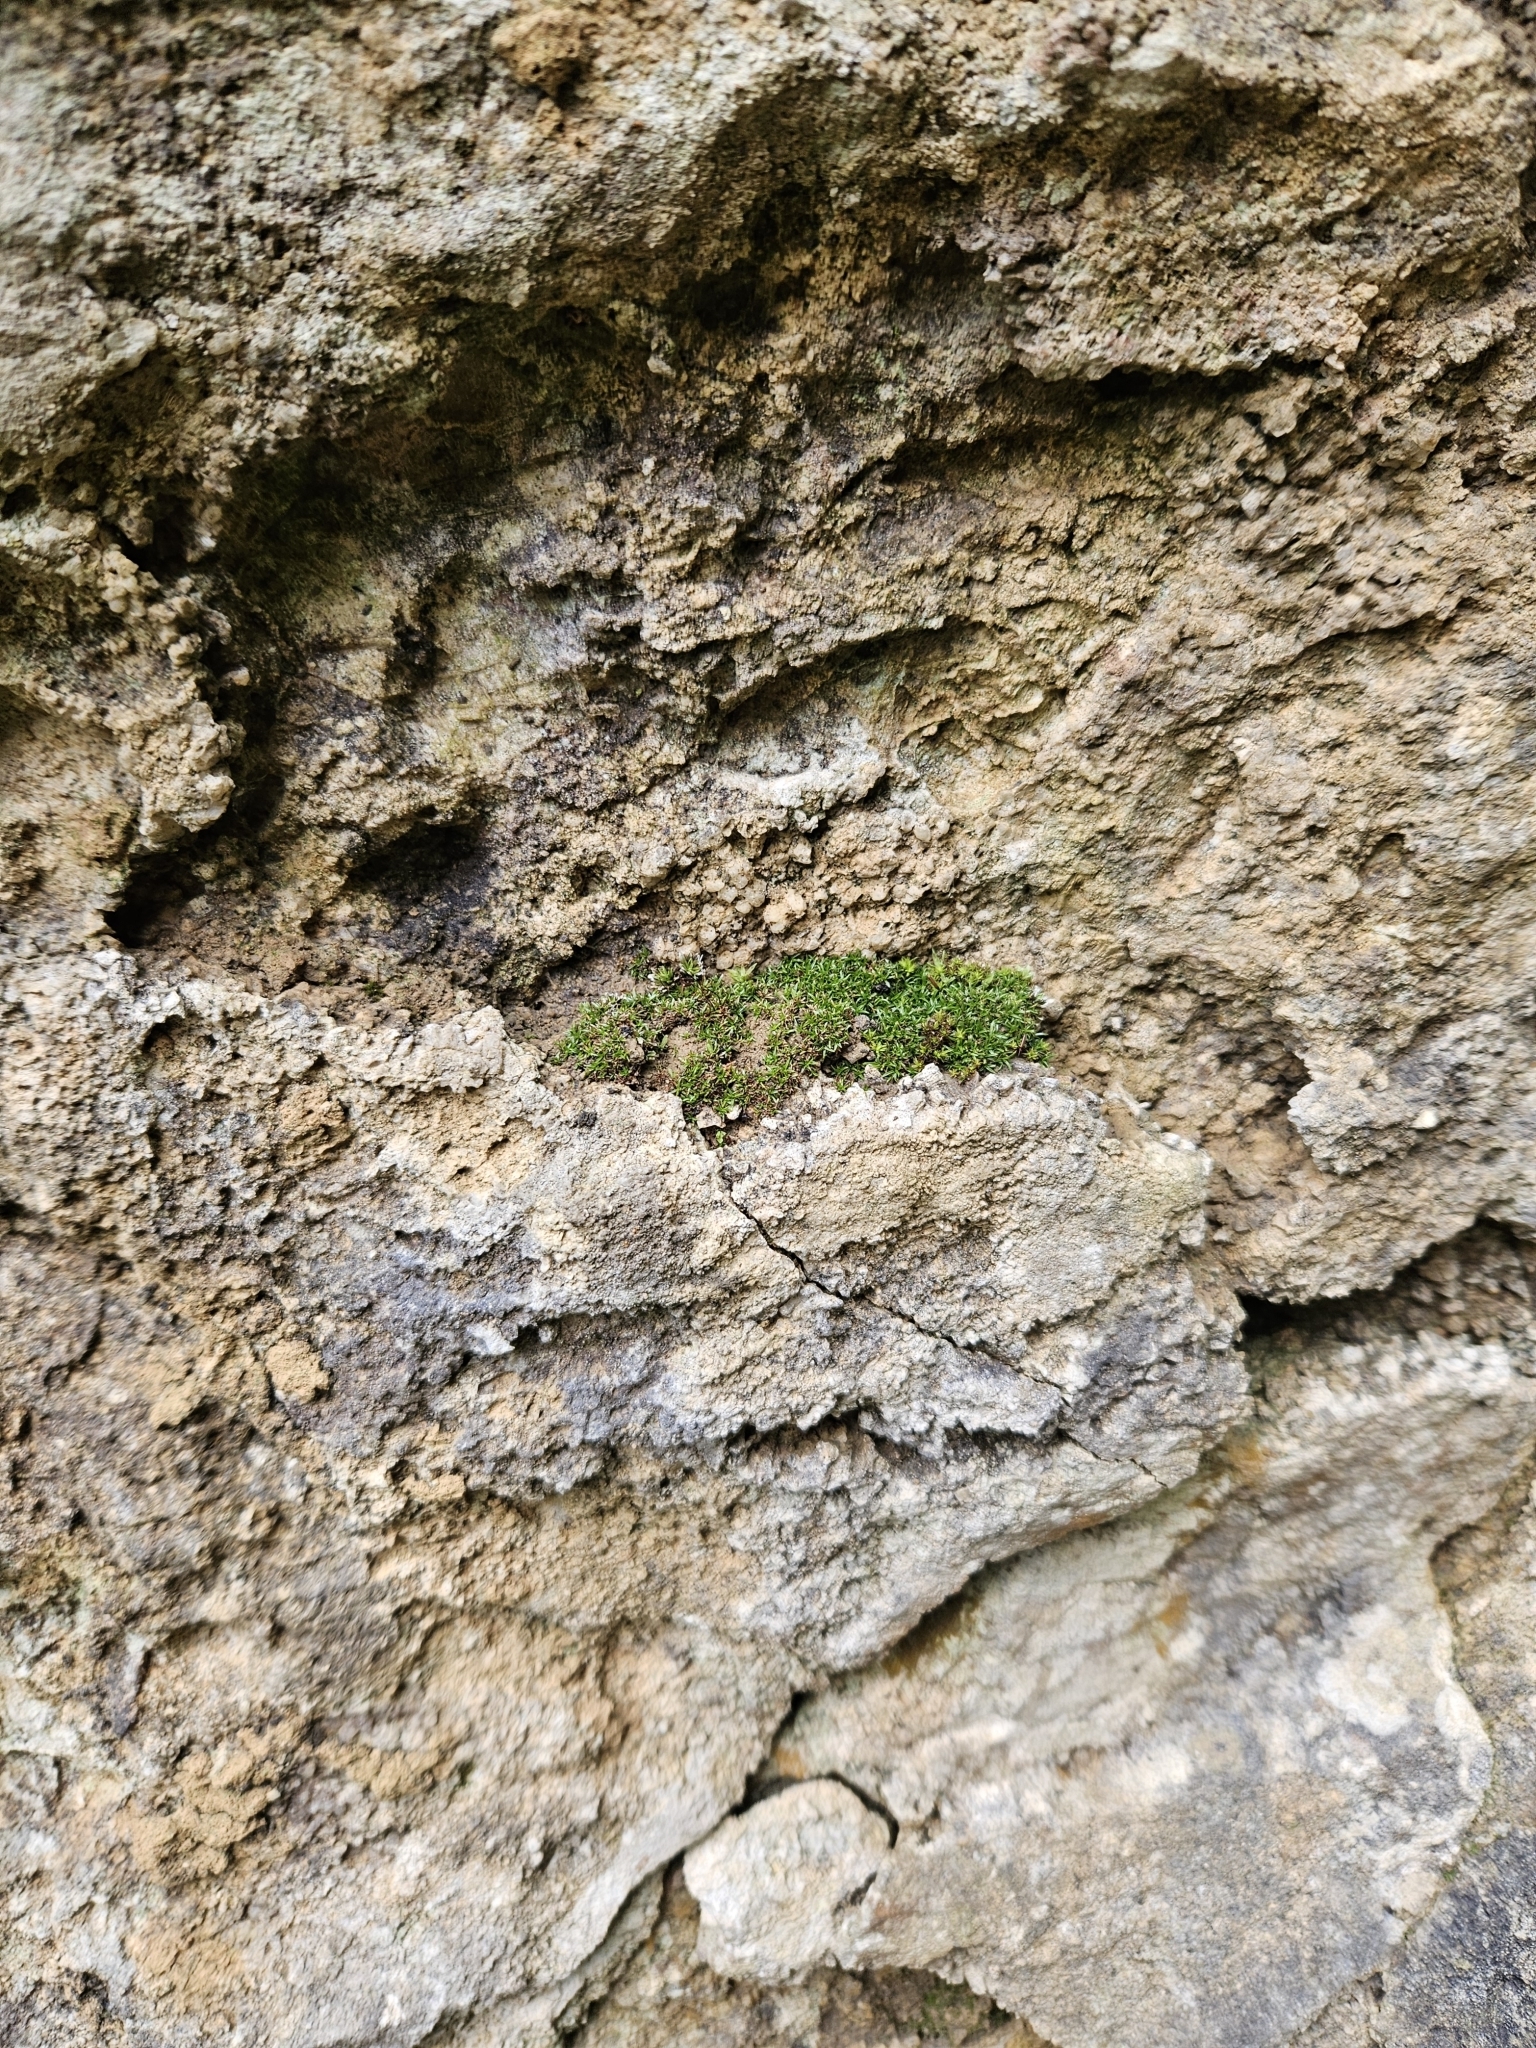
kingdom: Plantae
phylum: Bryophyta
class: Bryopsida
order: Pottiales
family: Pottiaceae
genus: Aloina
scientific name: Aloina aloides
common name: Common aloe-moss
